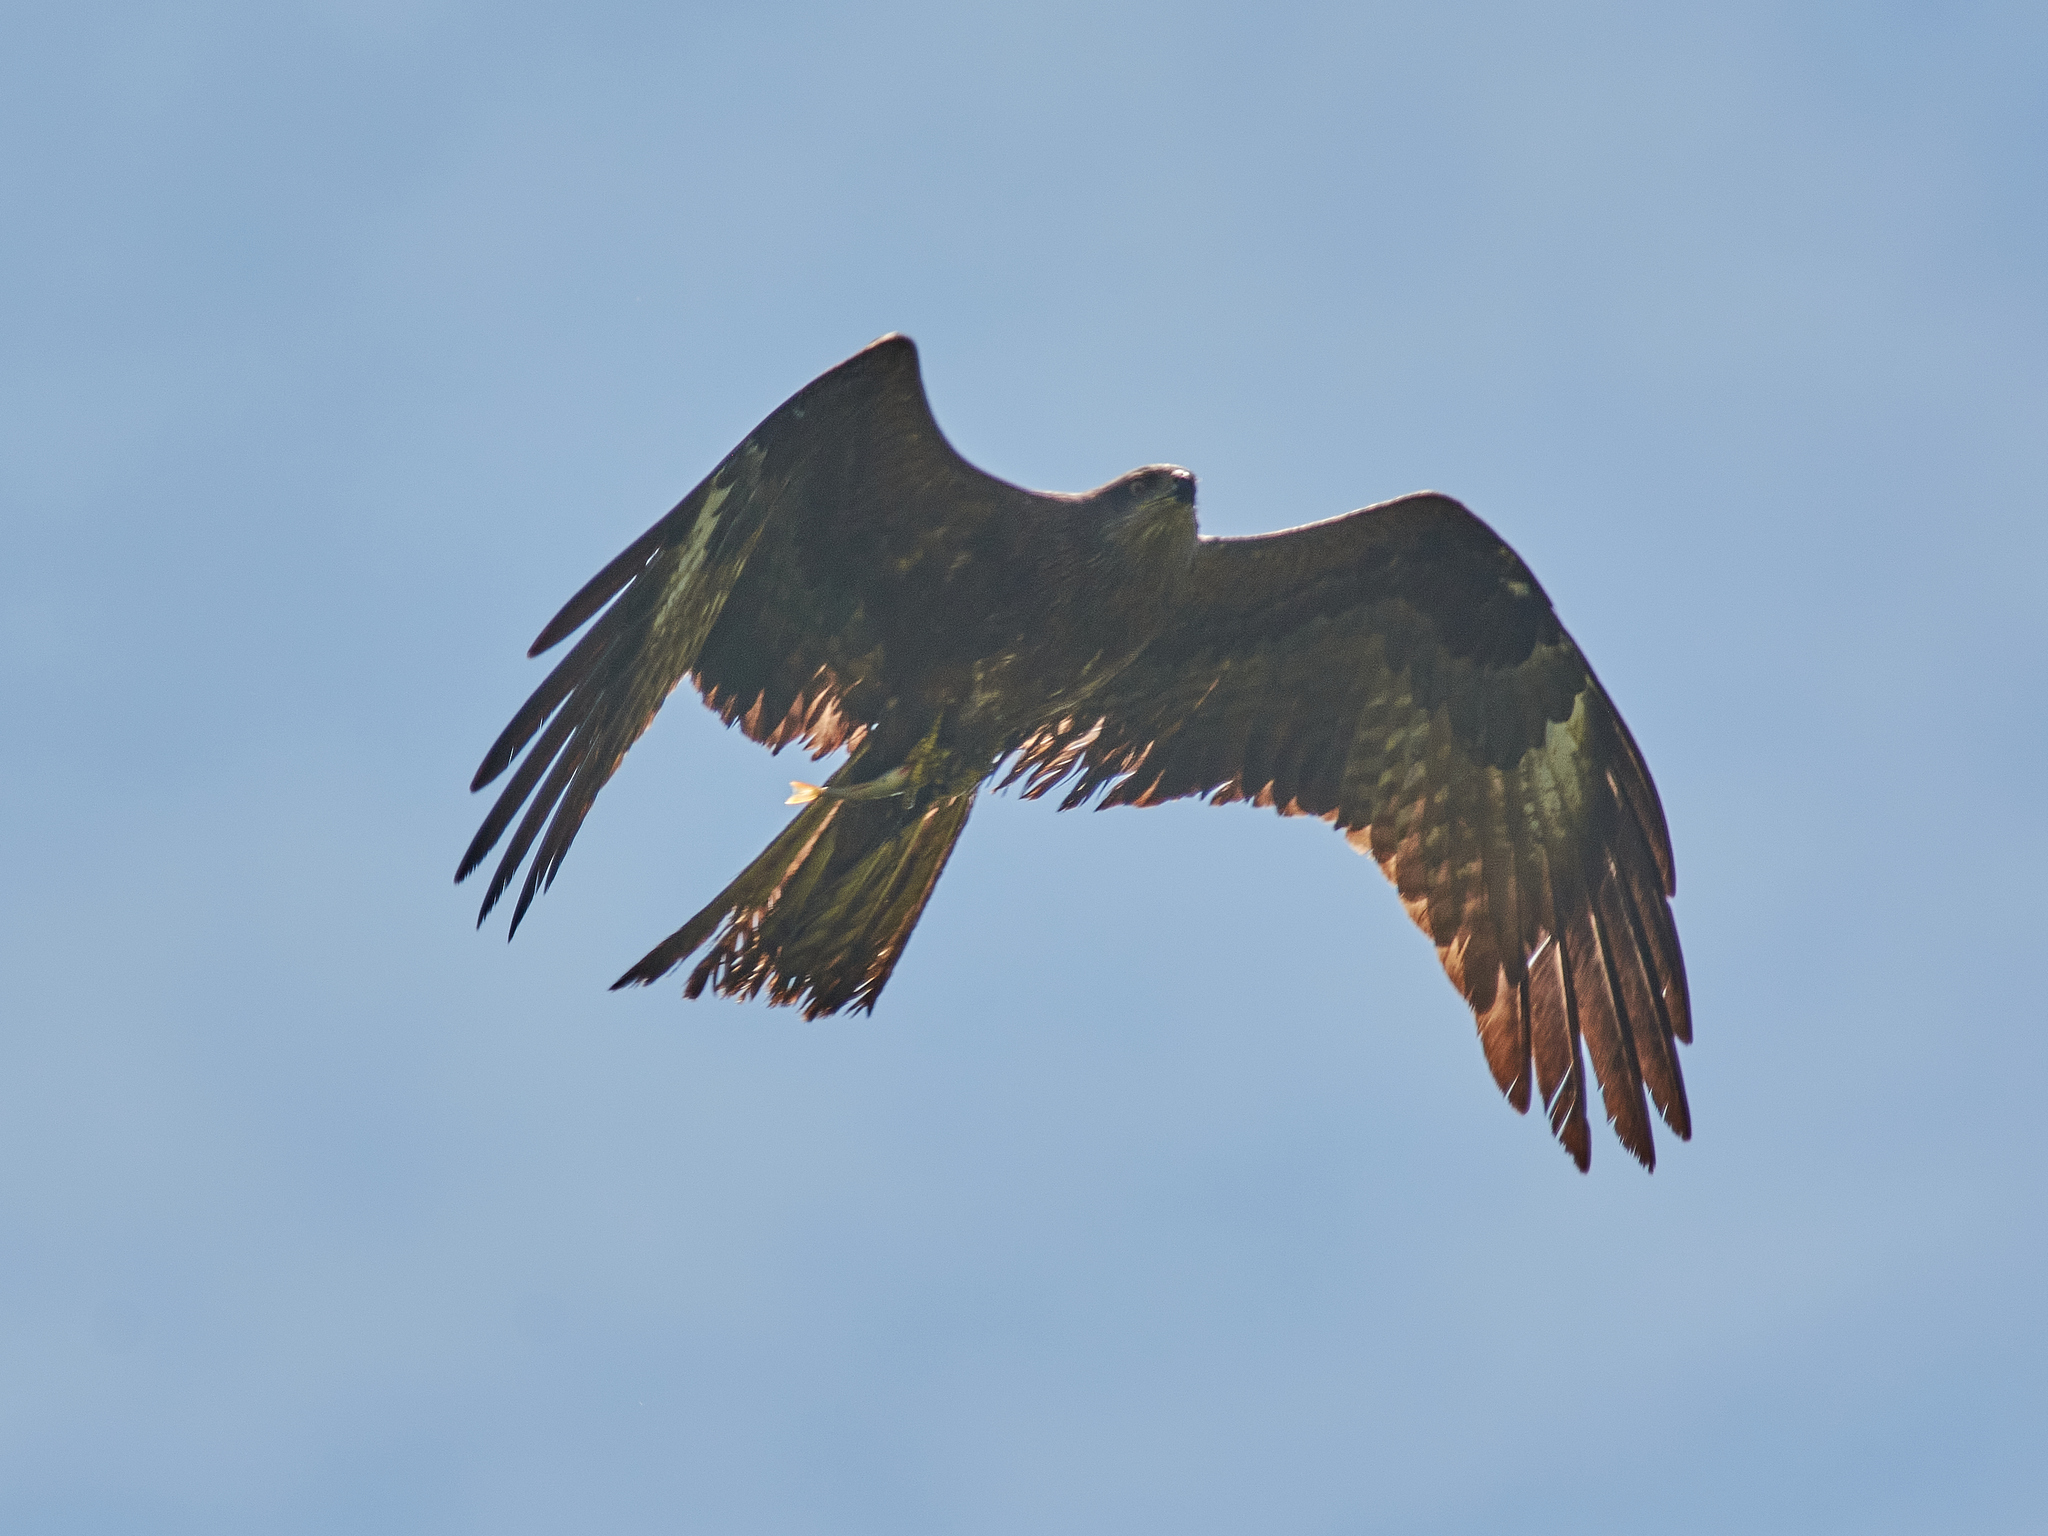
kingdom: Animalia
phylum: Chordata
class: Aves
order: Accipitriformes
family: Accipitridae
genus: Milvus
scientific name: Milvus migrans
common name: Black kite
